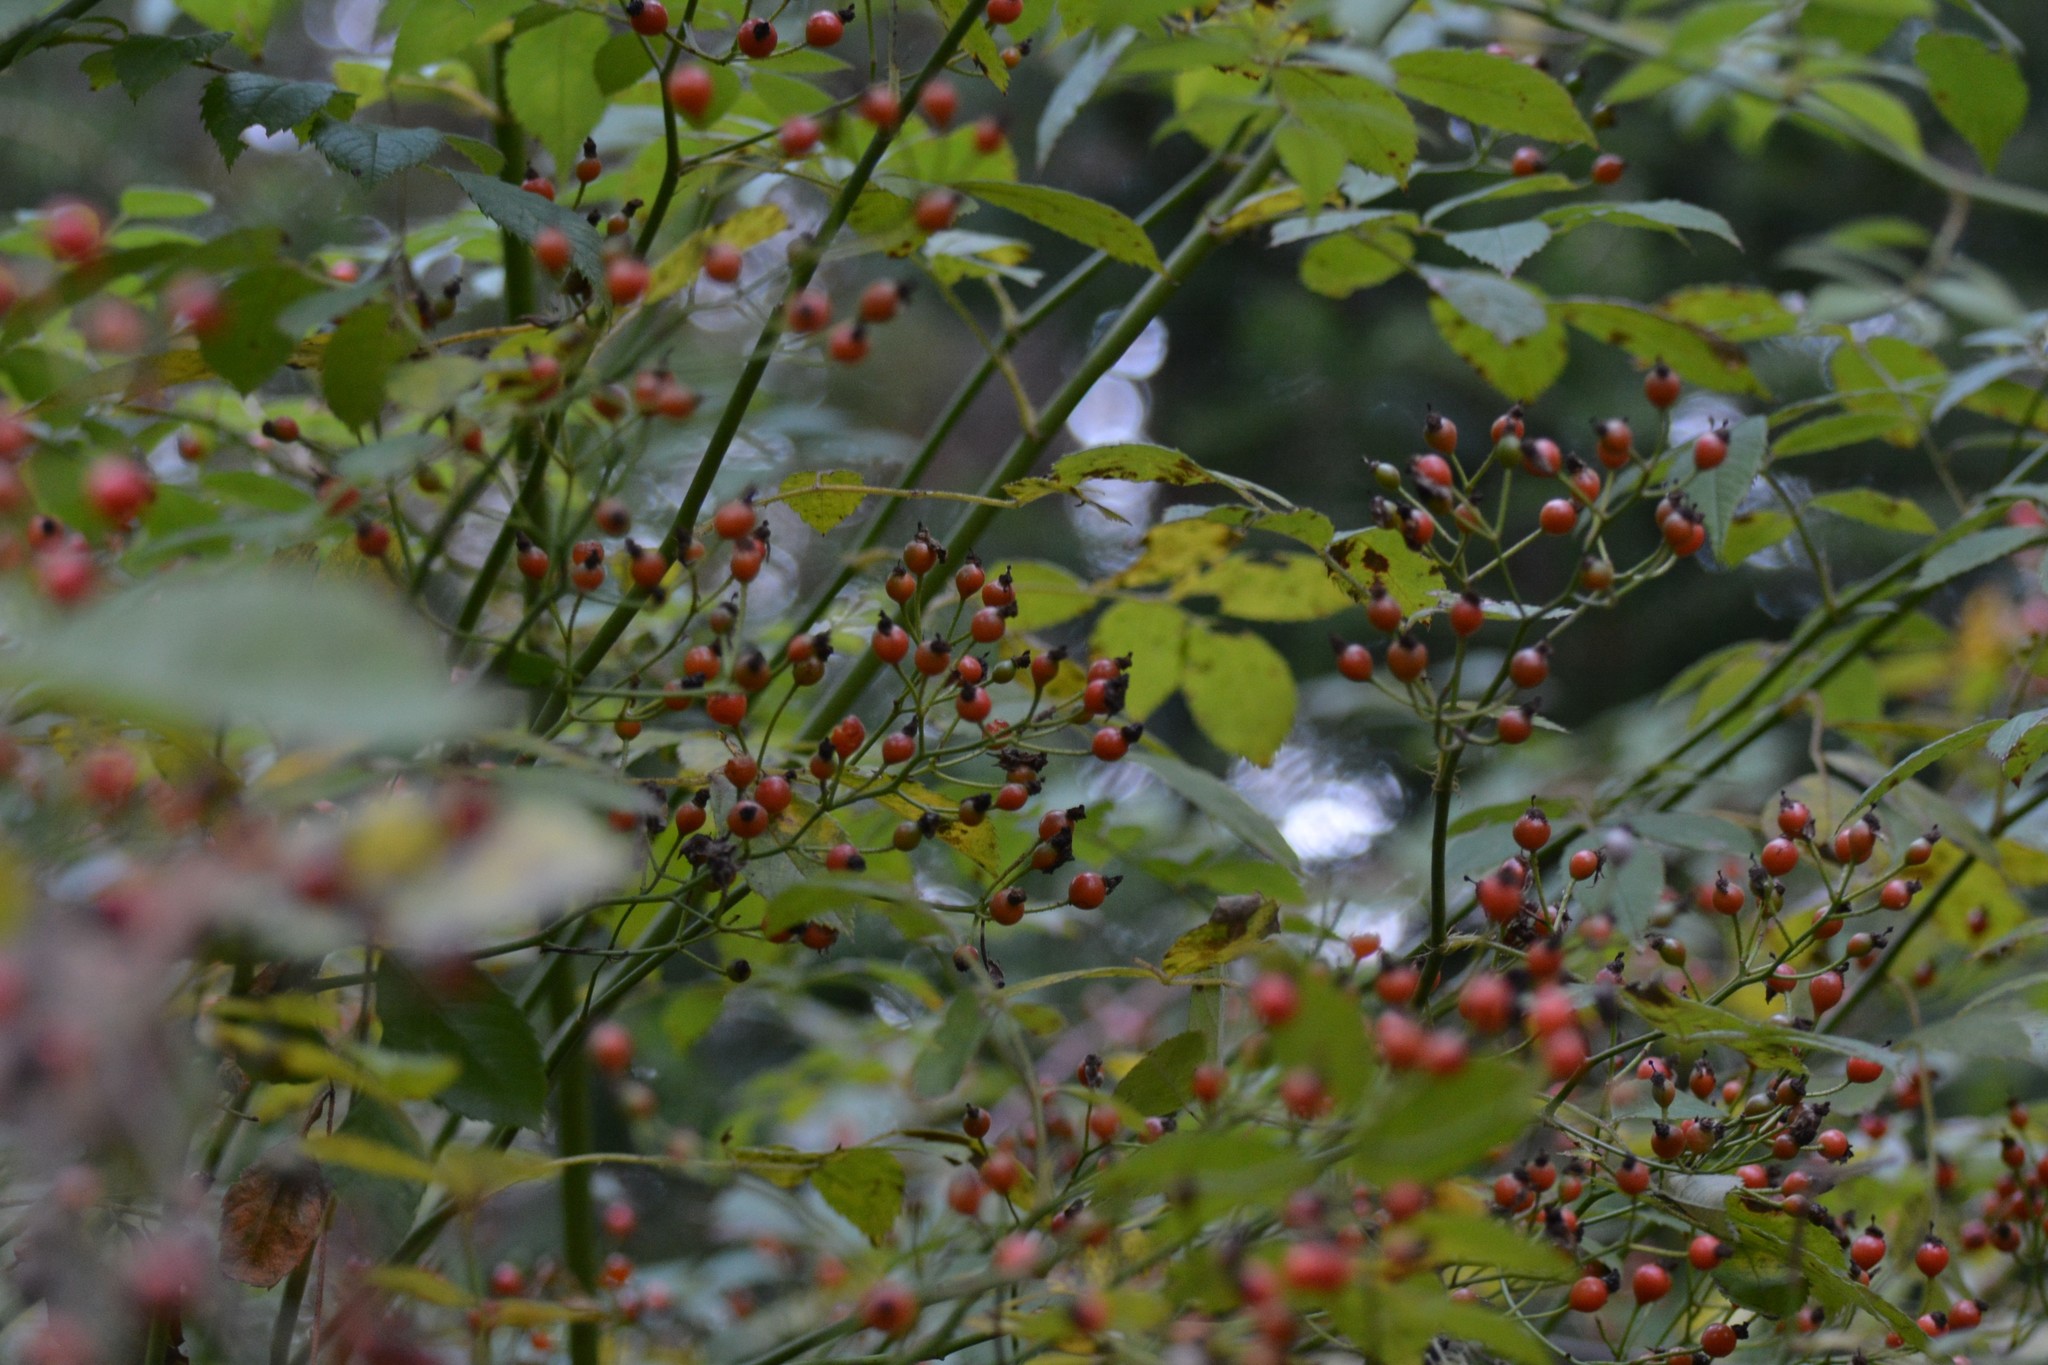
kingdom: Plantae
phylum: Tracheophyta
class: Magnoliopsida
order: Rosales
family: Rosaceae
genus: Rosa
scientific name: Rosa multiflora
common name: Multiflora rose
